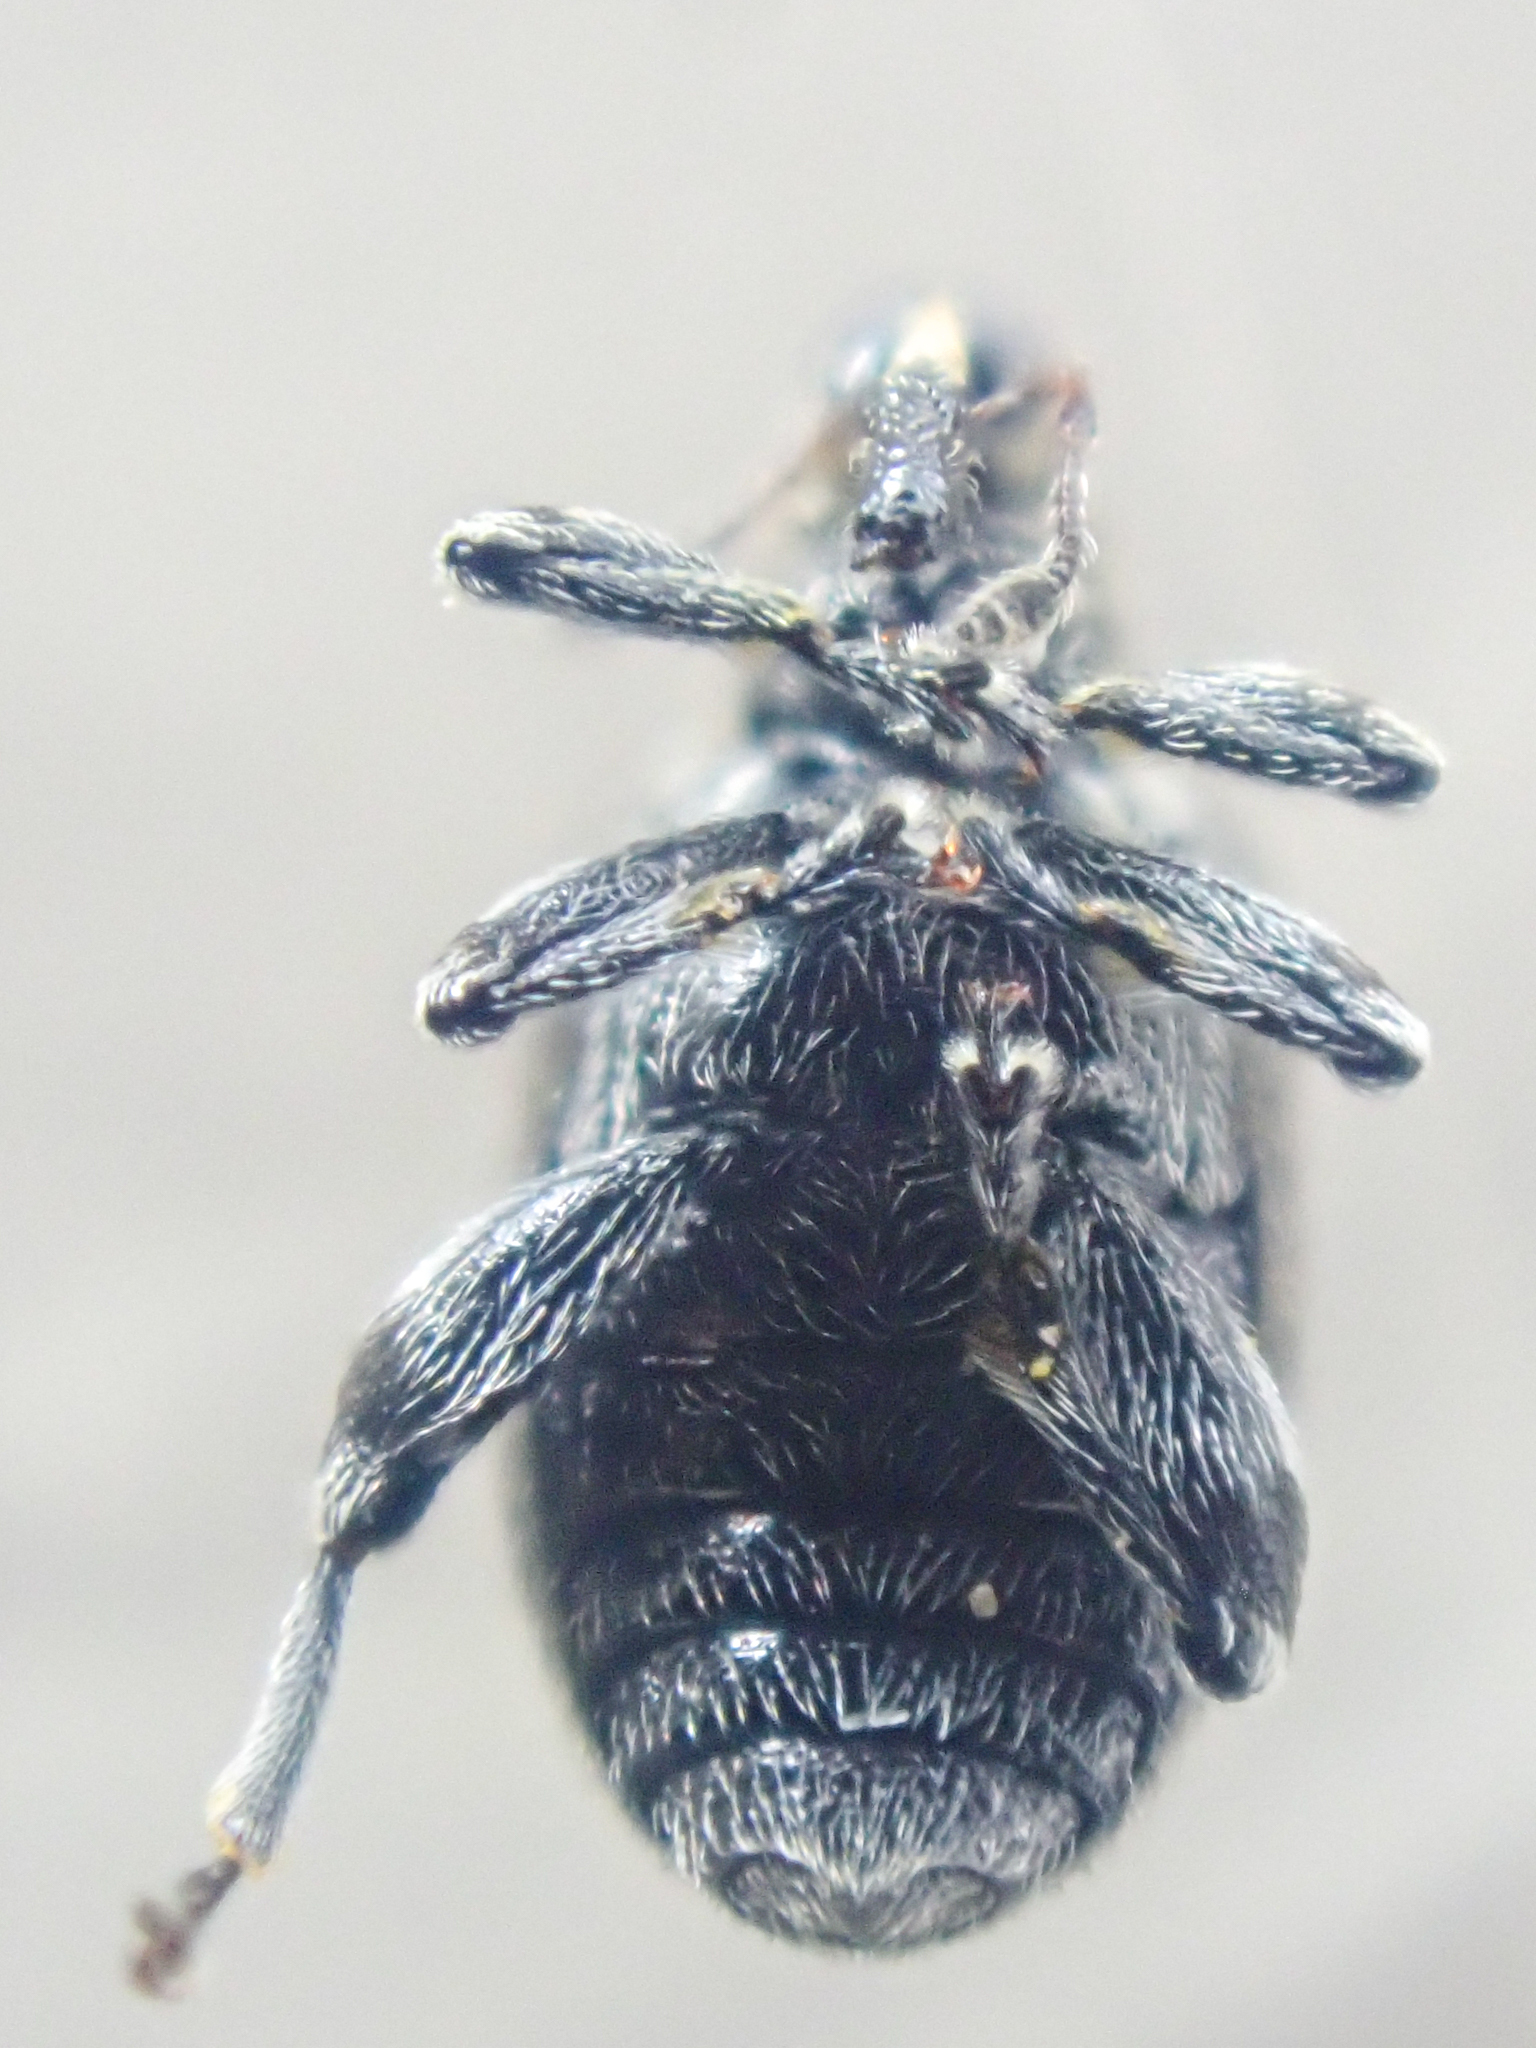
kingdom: Animalia
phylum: Arthropoda
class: Insecta
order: Coleoptera
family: Curculionidae
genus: Tachyerges
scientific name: Tachyerges salicis
